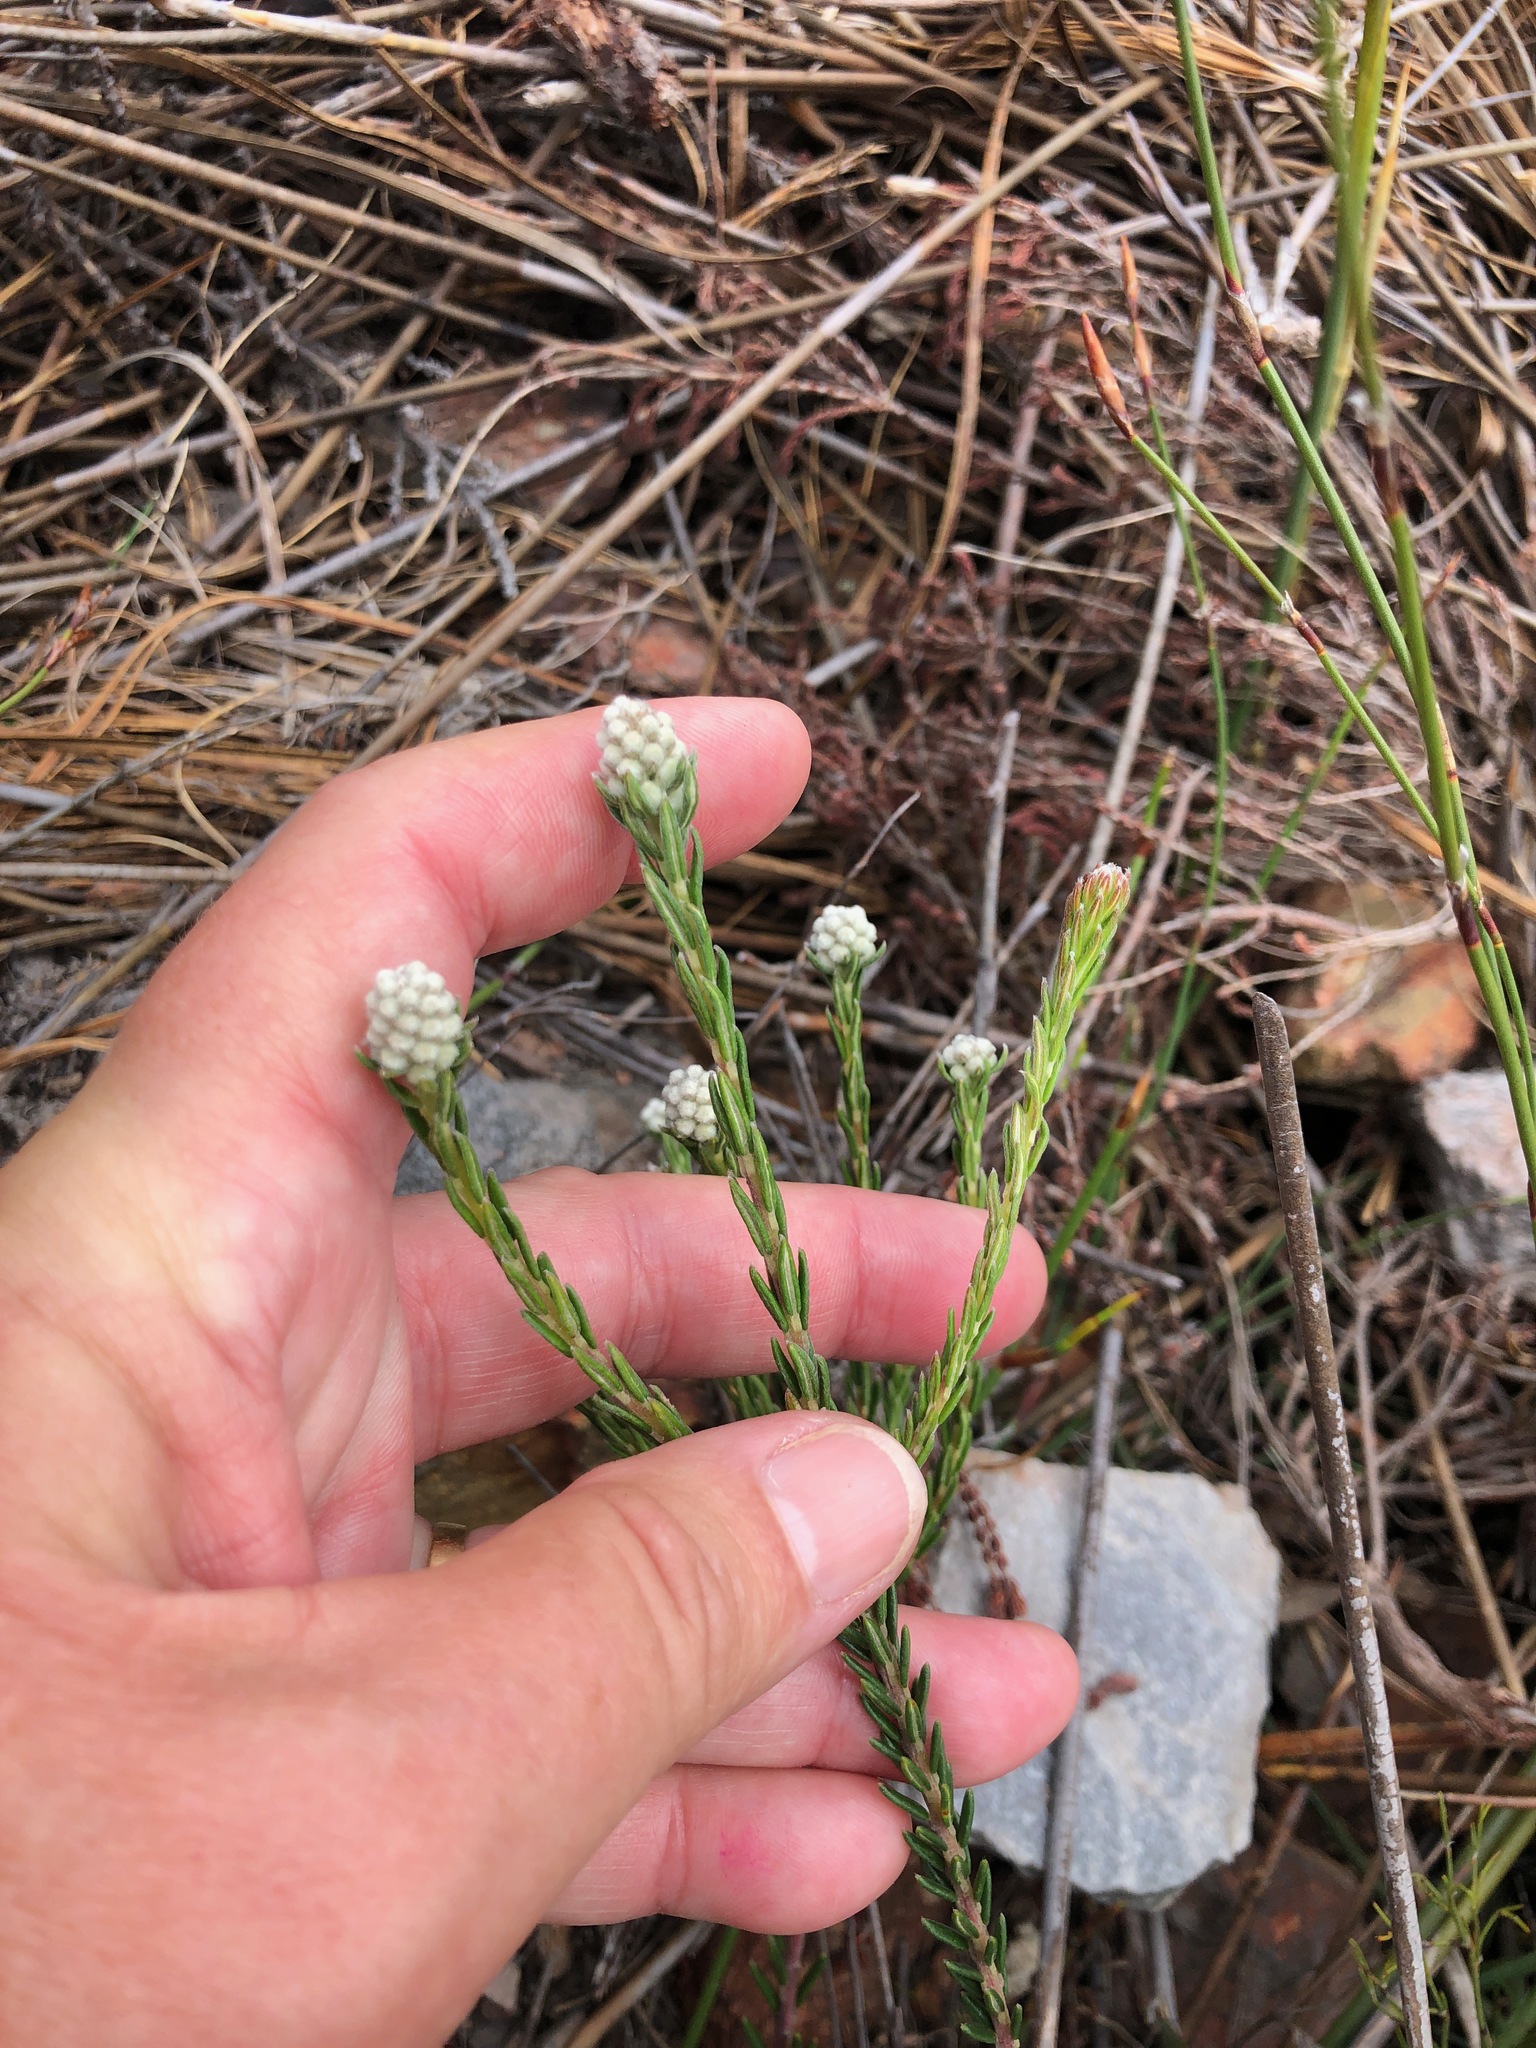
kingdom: Plantae
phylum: Tracheophyta
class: Magnoliopsida
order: Rosales
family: Rhamnaceae
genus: Phylica
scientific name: Phylica imberbis
